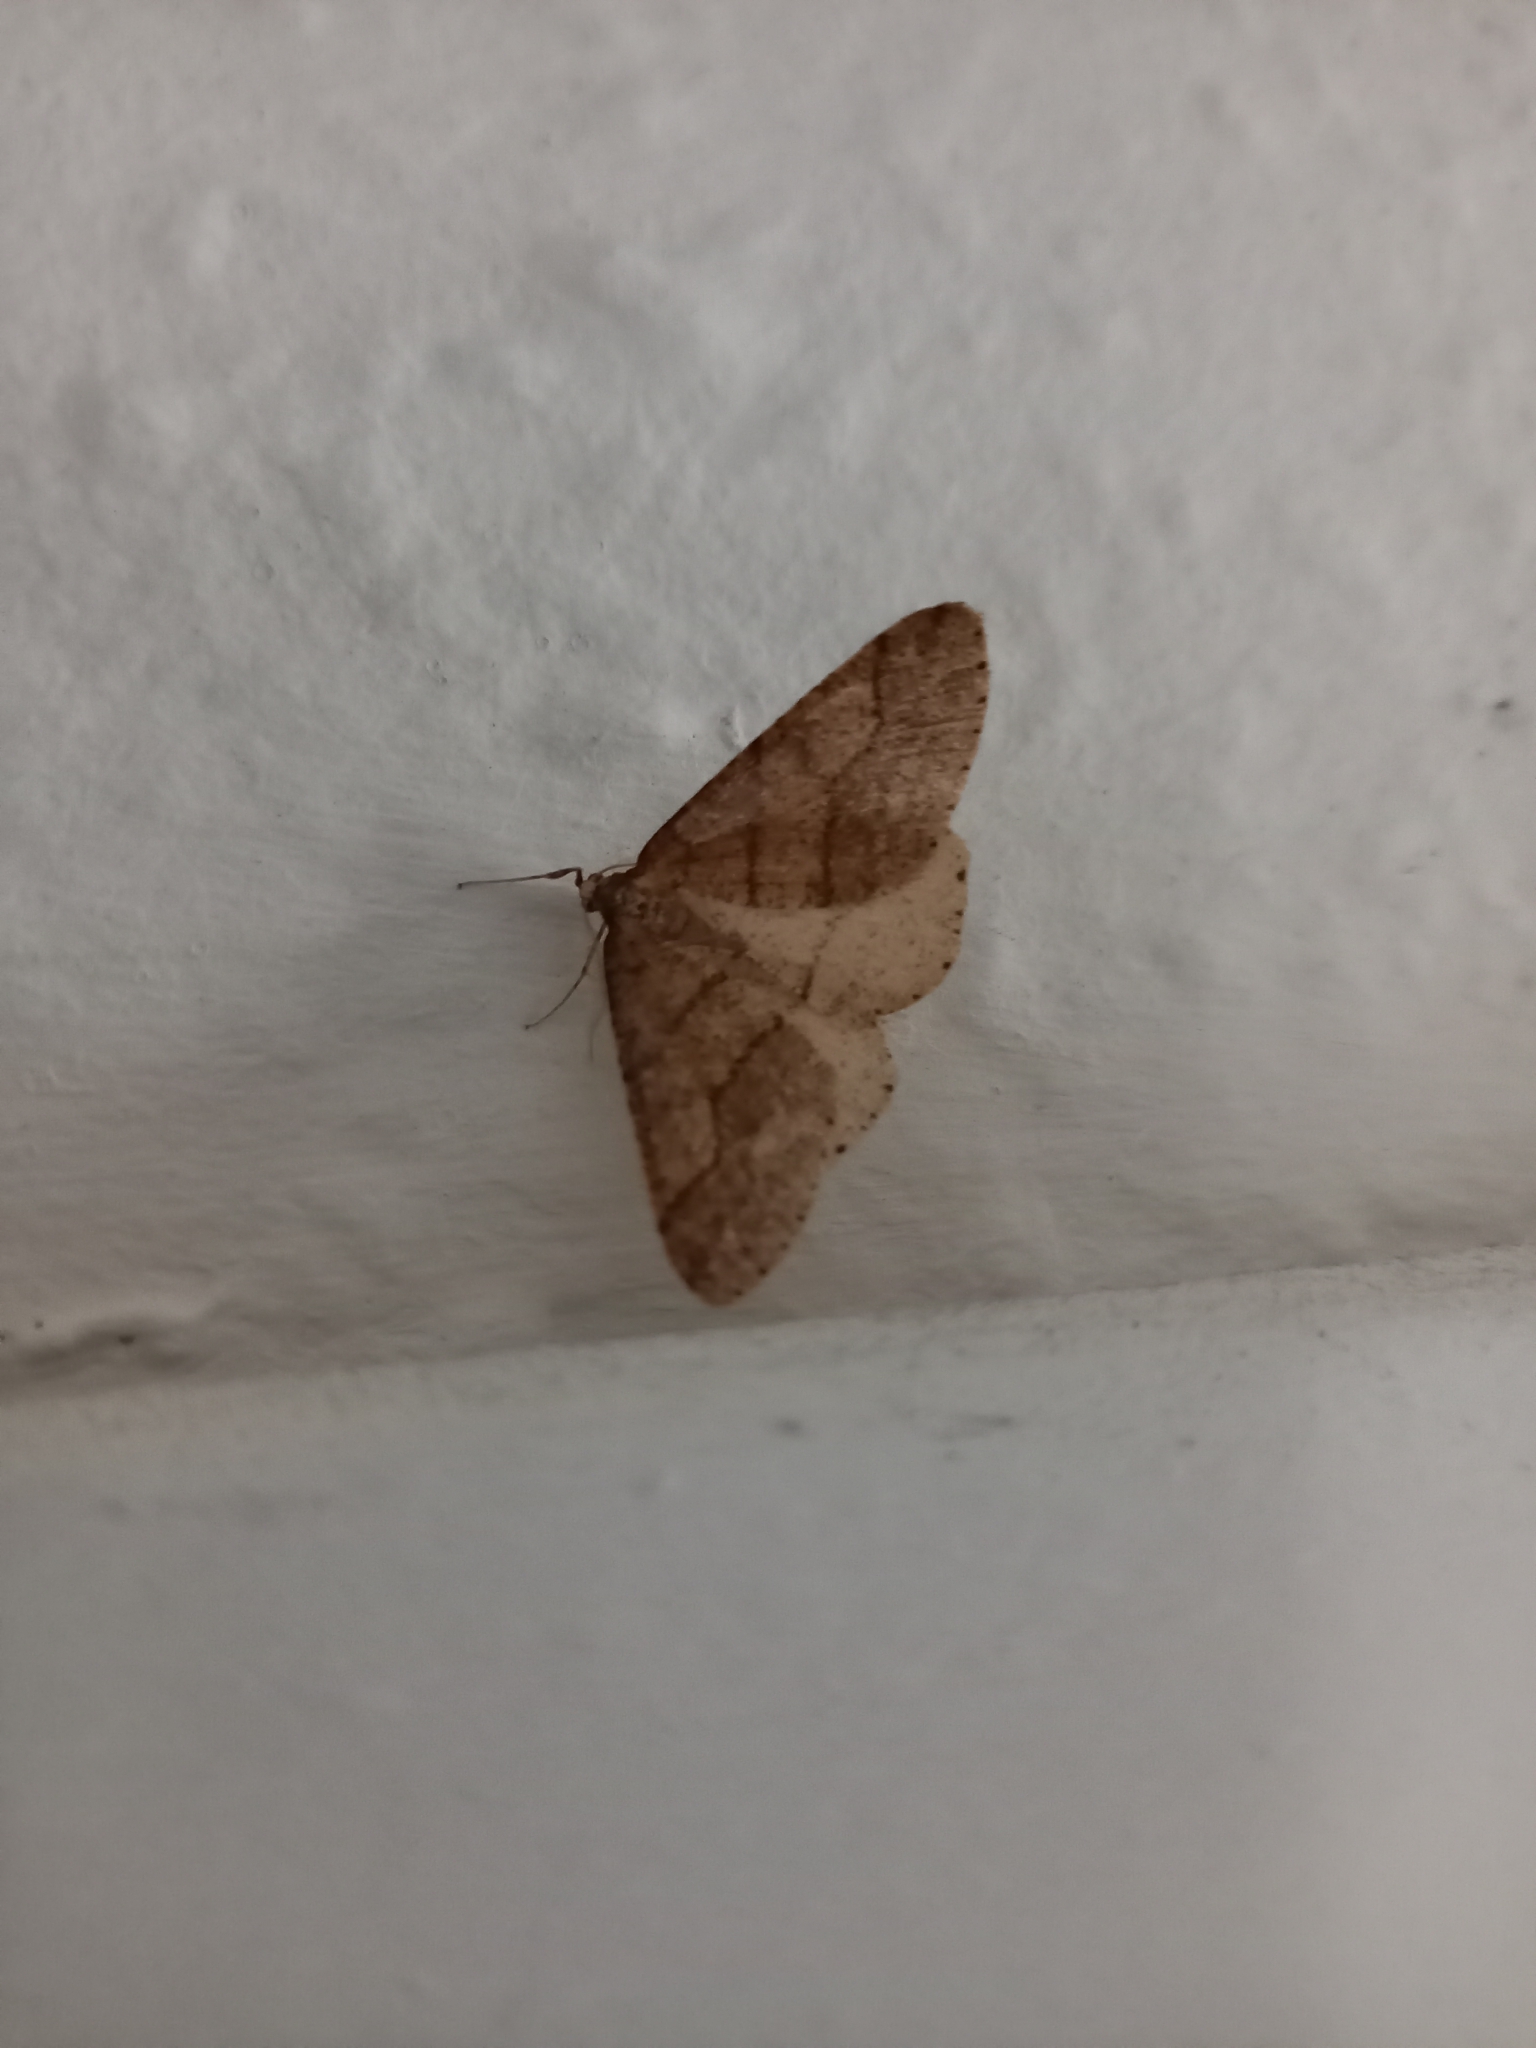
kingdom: Animalia
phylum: Arthropoda
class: Insecta
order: Lepidoptera
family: Geometridae
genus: Agriopis
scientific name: Agriopis marginaria
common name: Dotted border
